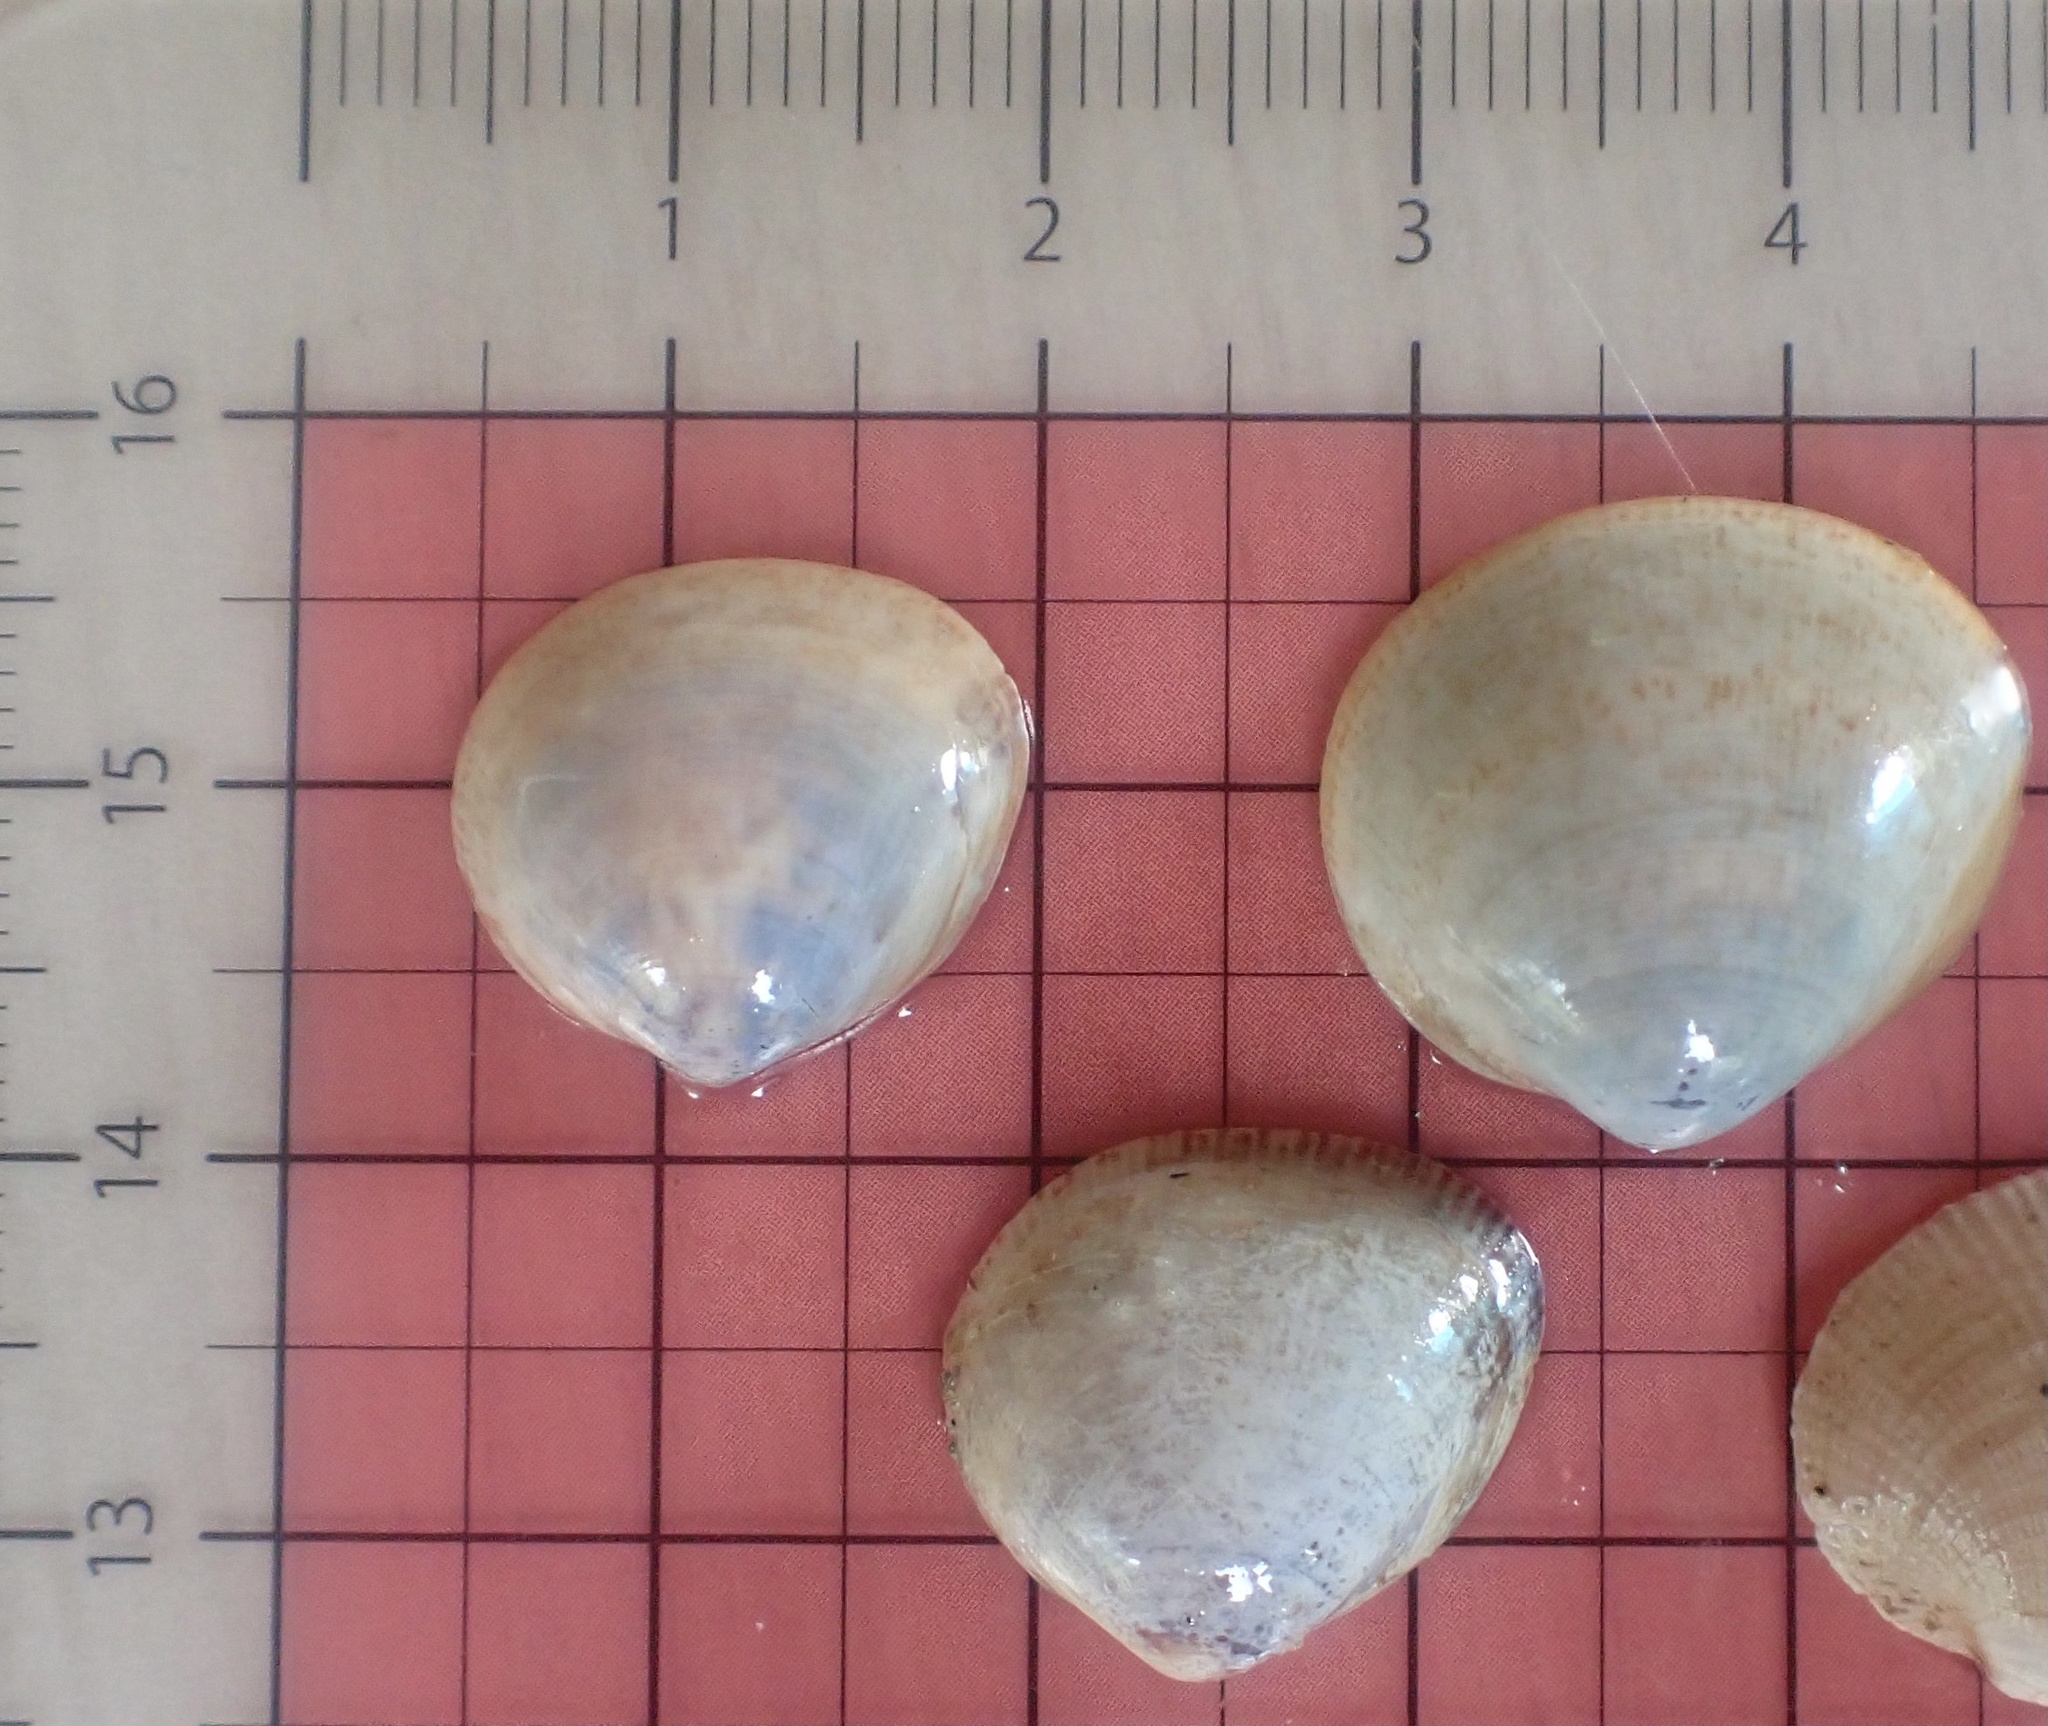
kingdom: Animalia
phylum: Mollusca
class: Bivalvia
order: Cardiida
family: Cardiidae
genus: Laevicardium
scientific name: Laevicardium substriatum
